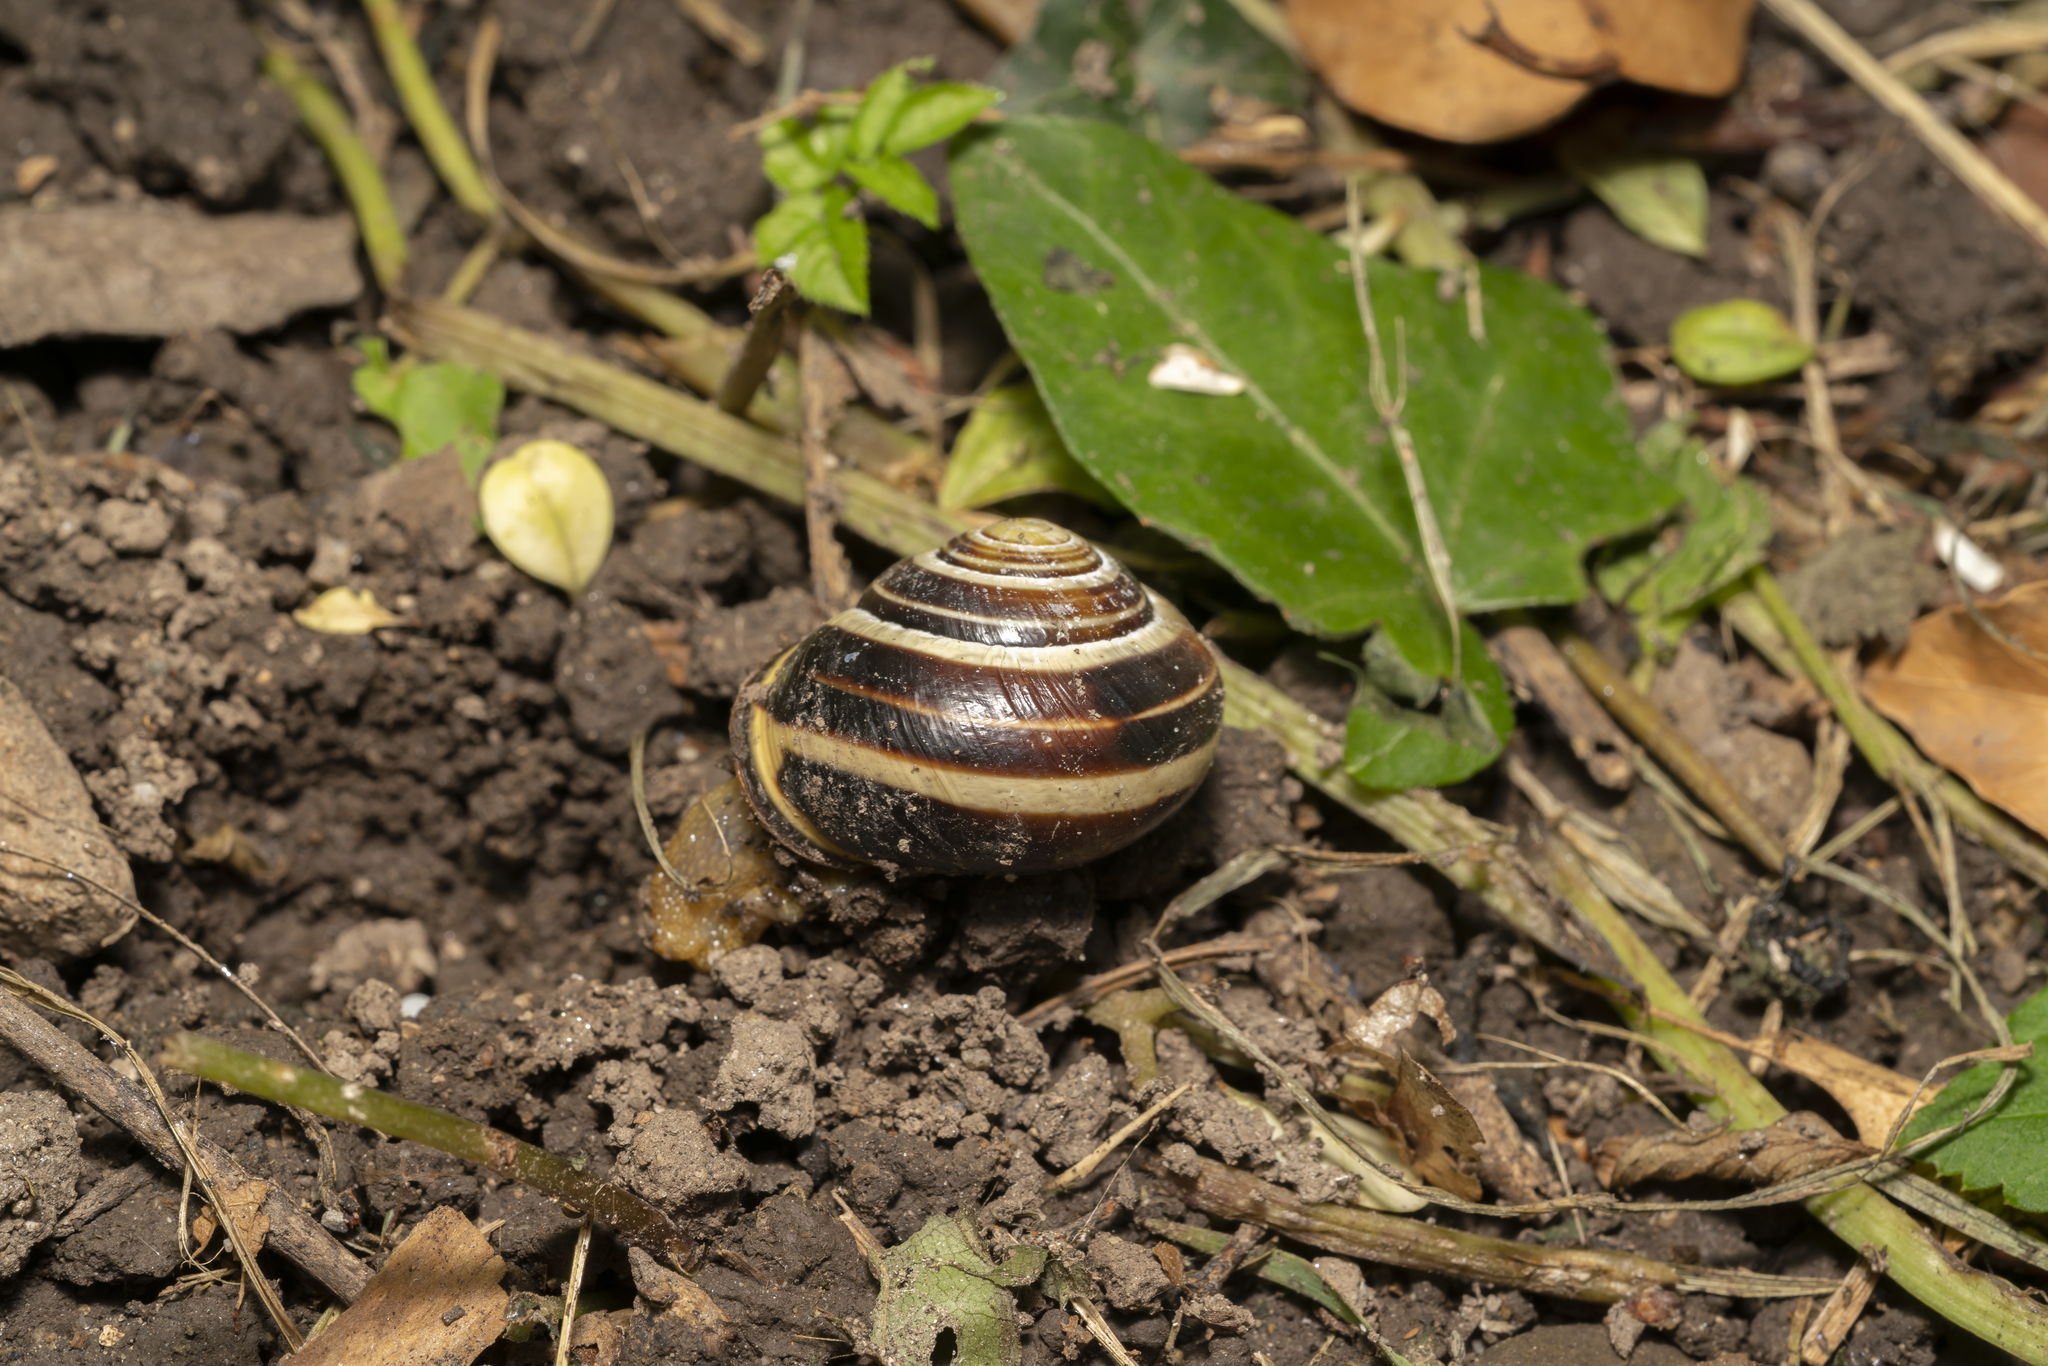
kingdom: Animalia
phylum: Mollusca
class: Gastropoda
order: Stylommatophora
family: Helicidae
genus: Cepaea
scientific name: Cepaea nemoralis
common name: Grovesnail
